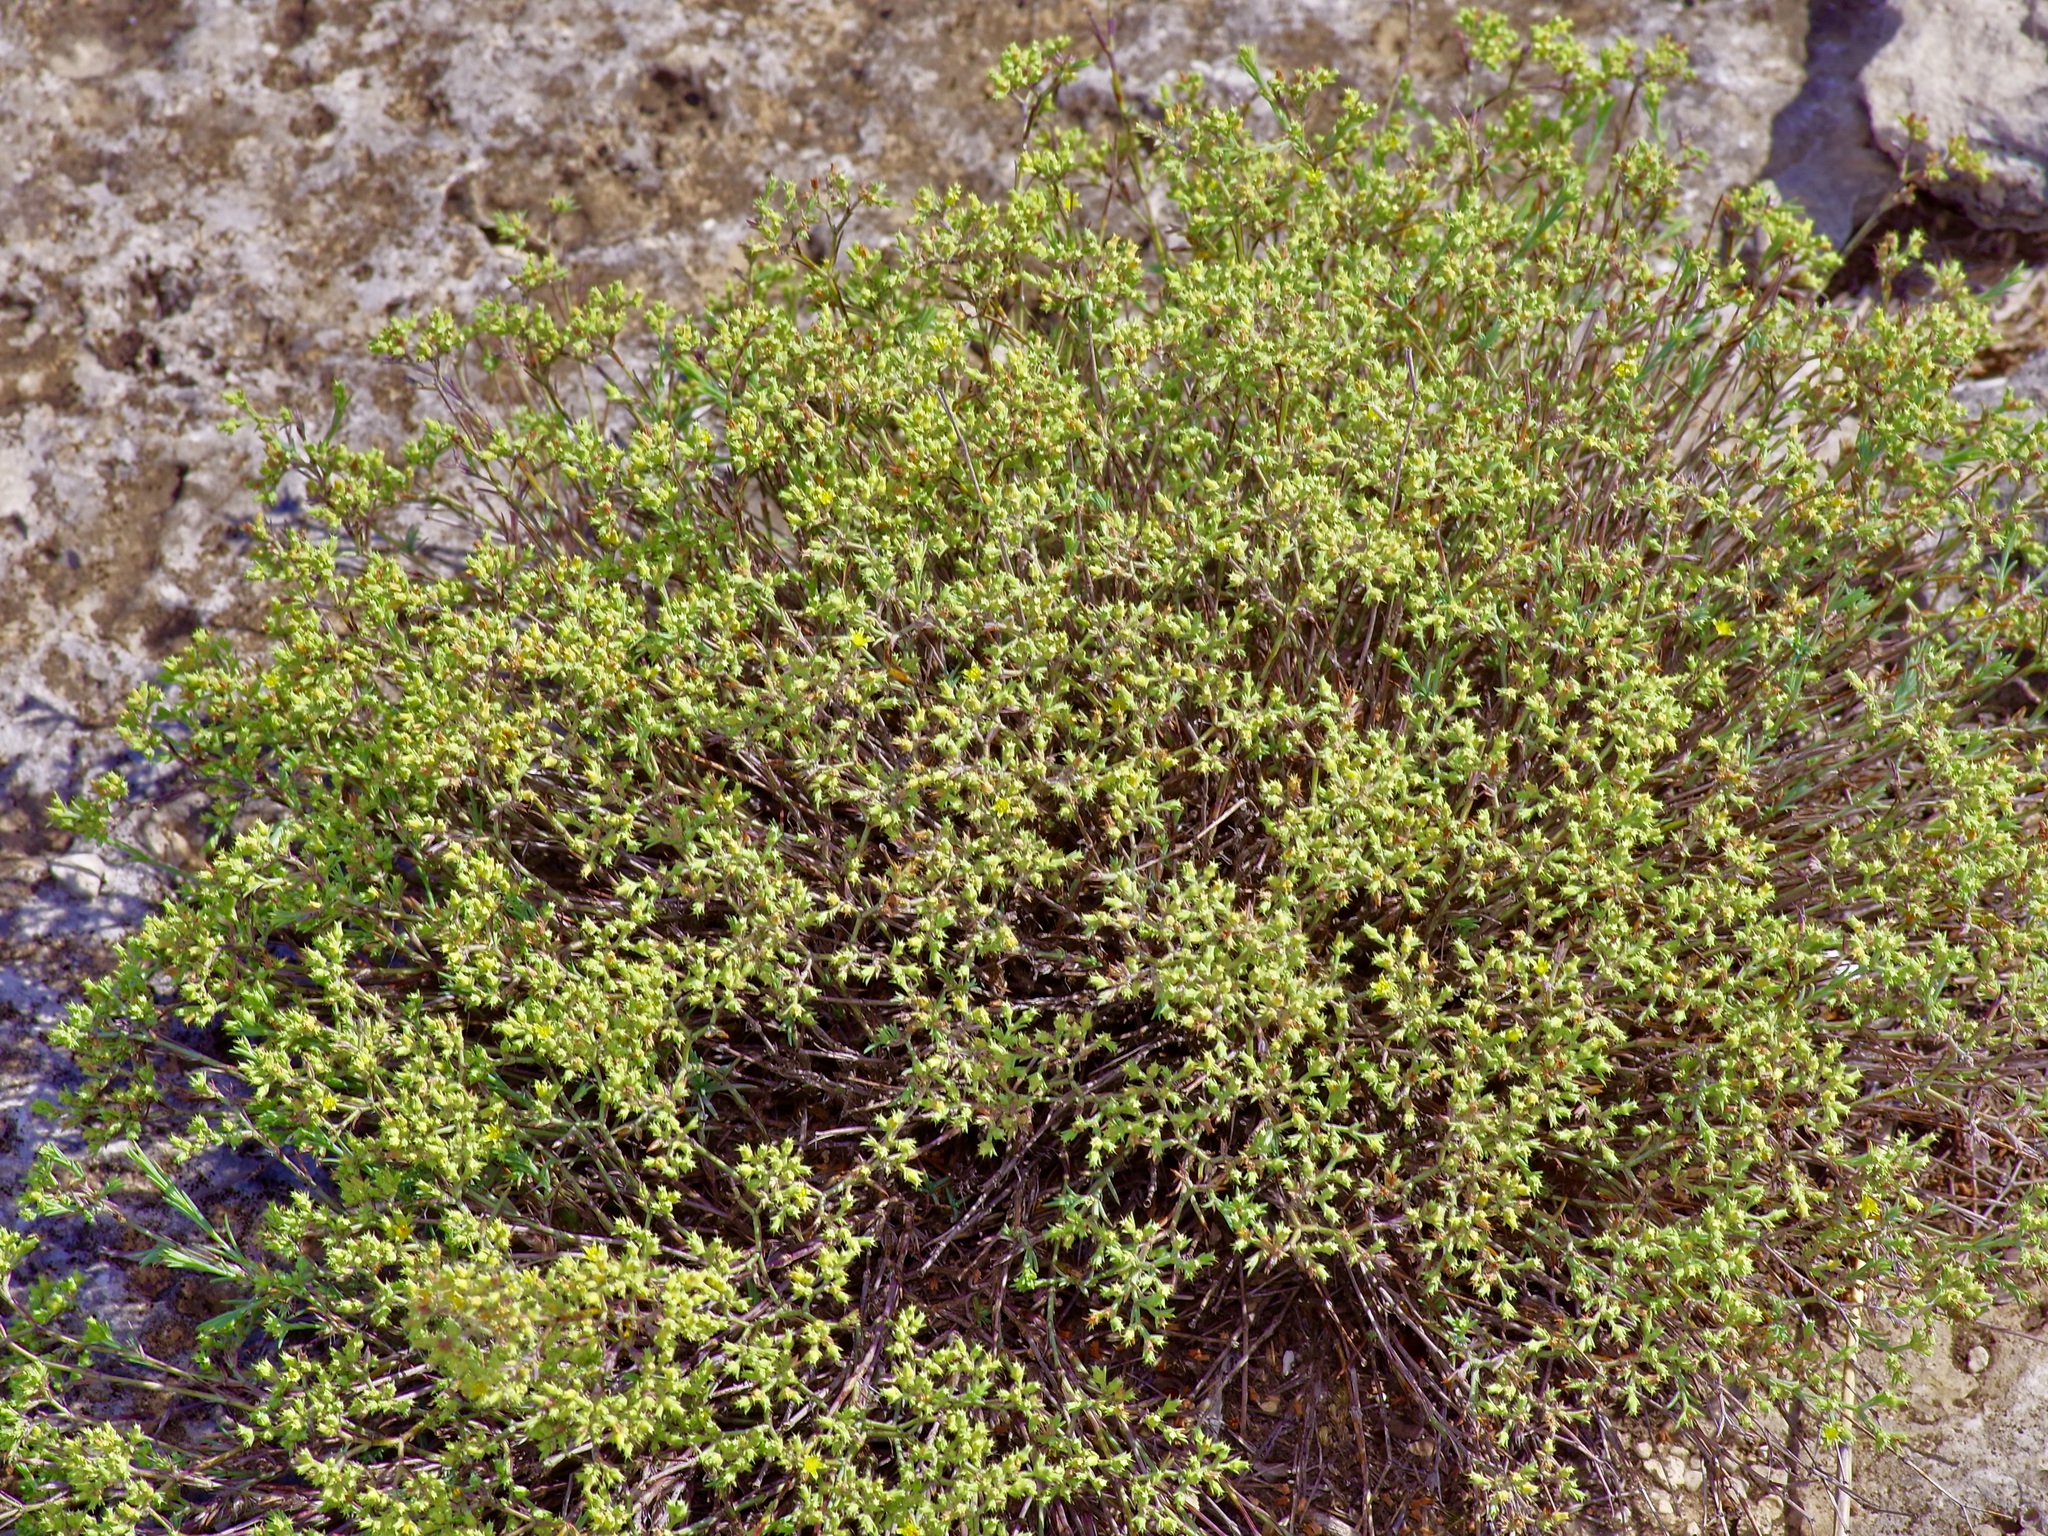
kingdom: Plantae
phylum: Tracheophyta
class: Magnoliopsida
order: Caryophyllales
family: Caryophyllaceae
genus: Paronychia
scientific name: Paronychia jamesii
